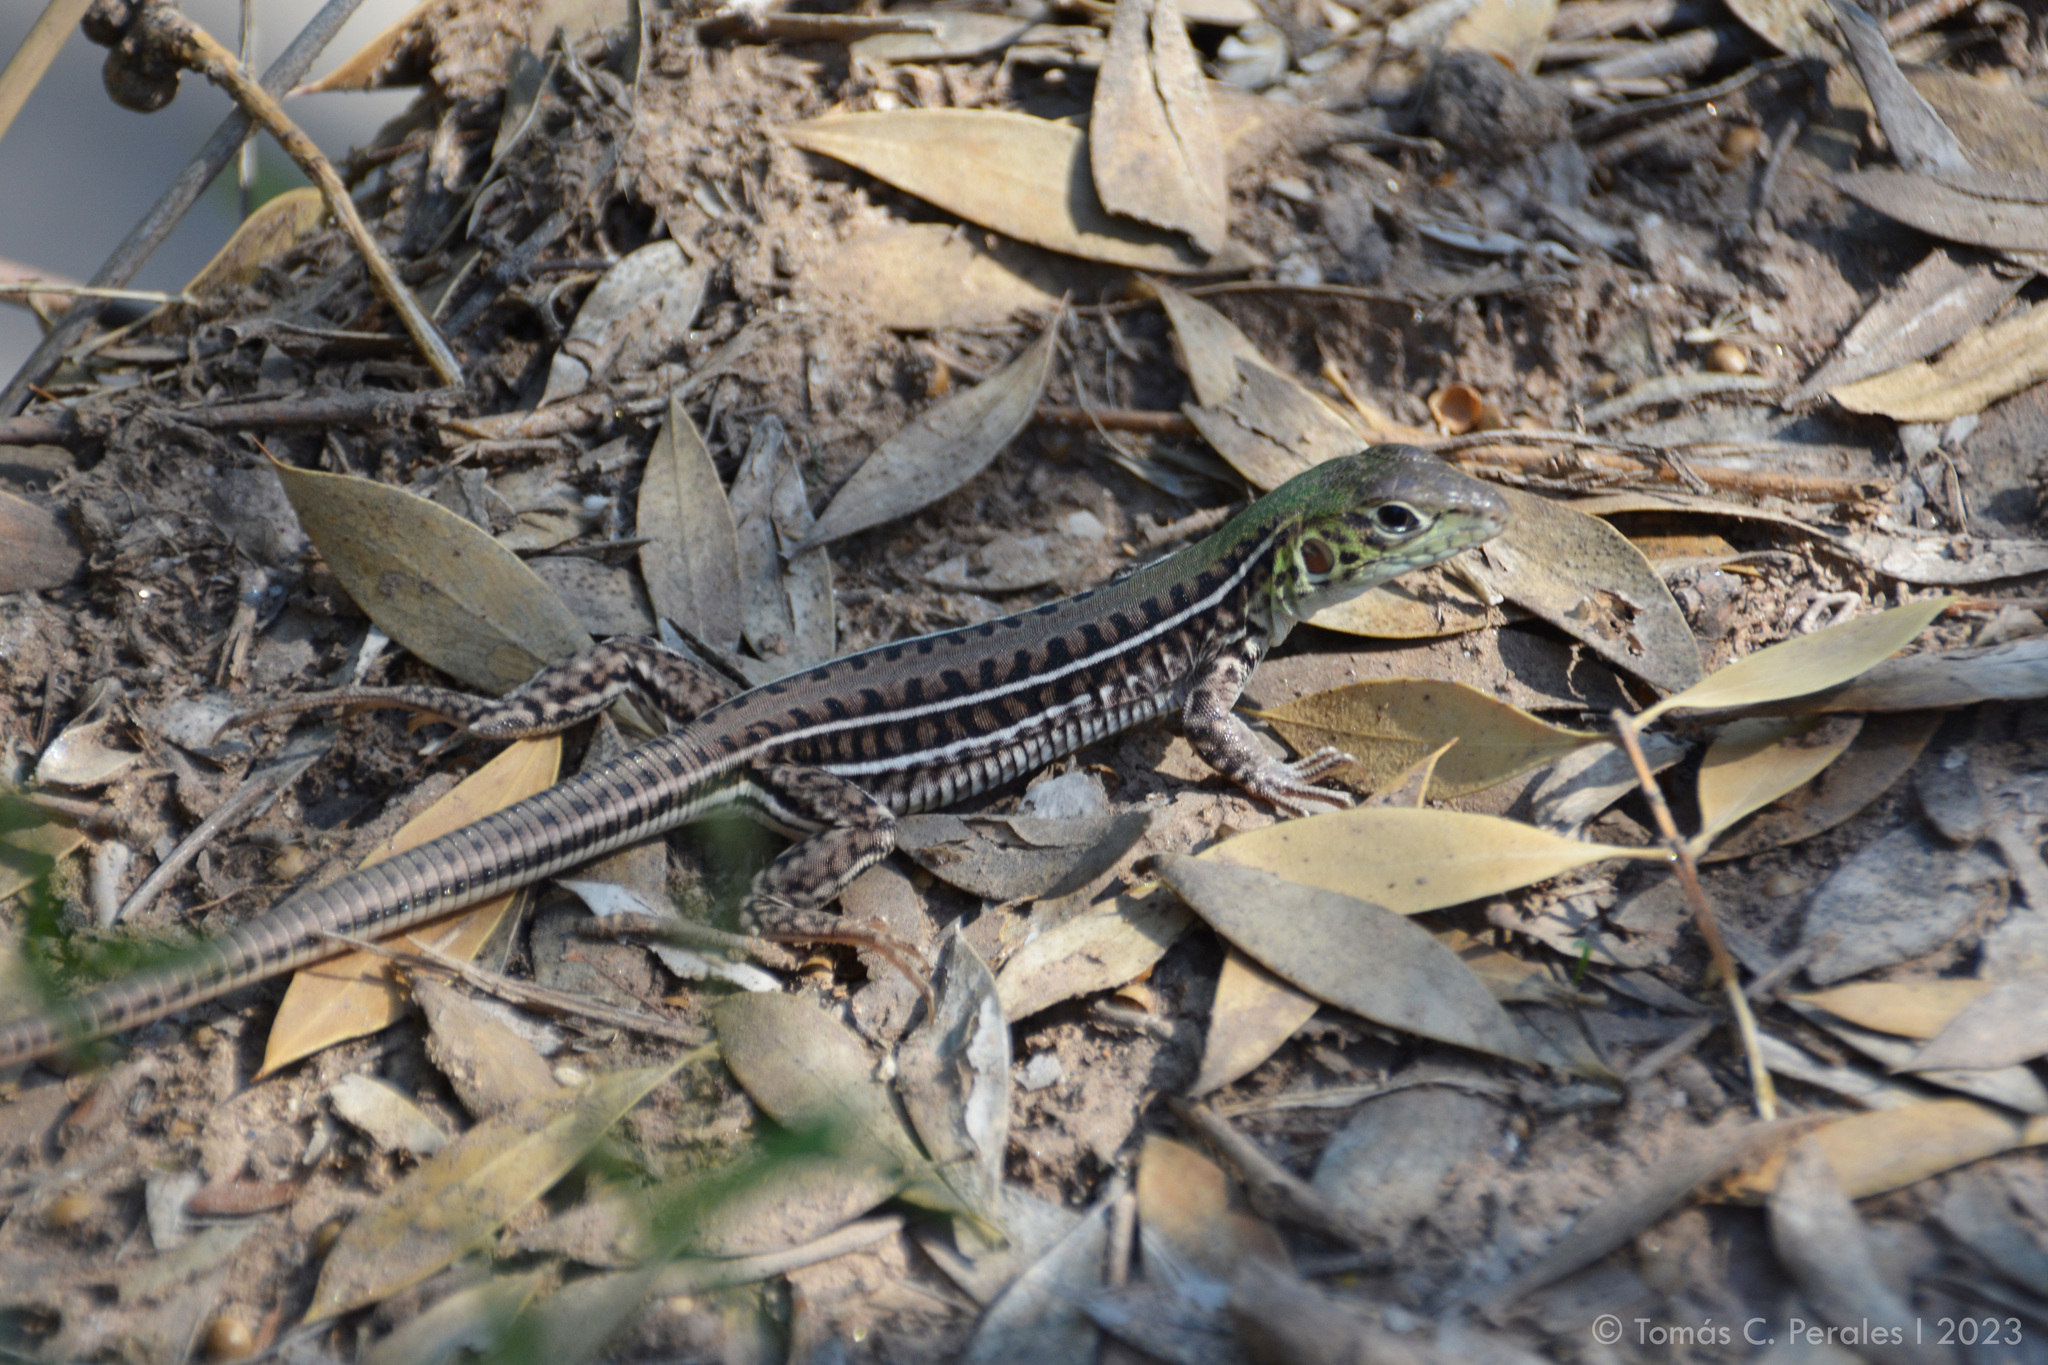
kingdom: Animalia
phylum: Chordata
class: Squamata
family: Teiidae
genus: Teius
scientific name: Teius suquiensis
